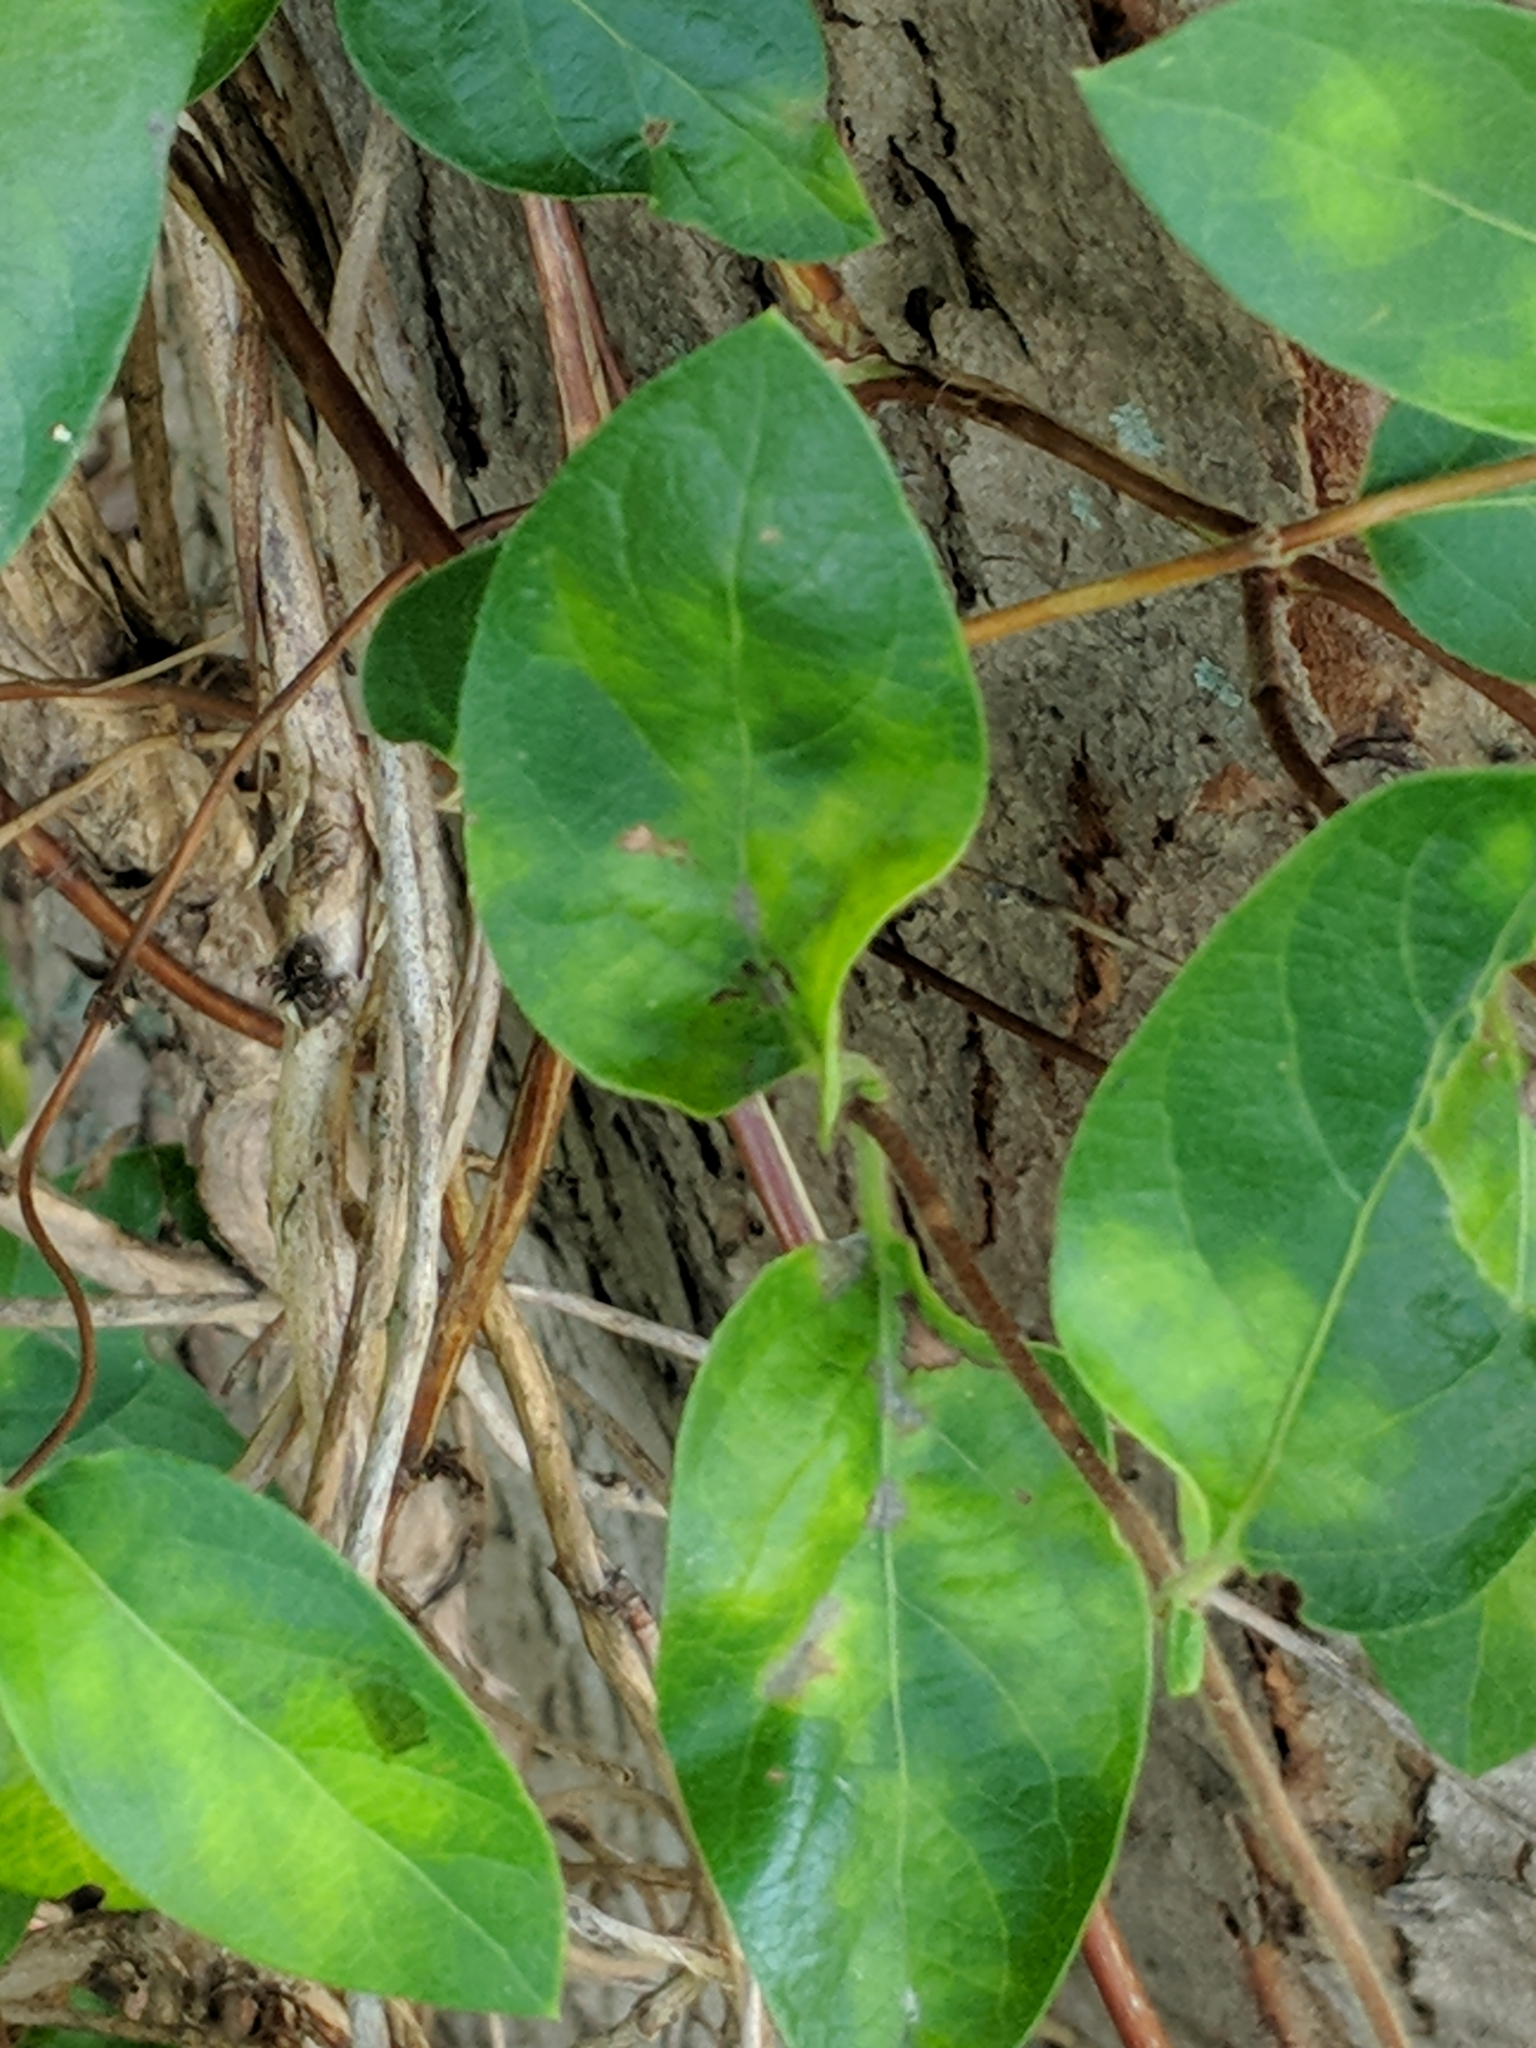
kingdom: Plantae
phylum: Tracheophyta
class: Magnoliopsida
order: Dipsacales
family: Caprifoliaceae
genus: Lonicera
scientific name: Lonicera japonica
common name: Japanese honeysuckle
